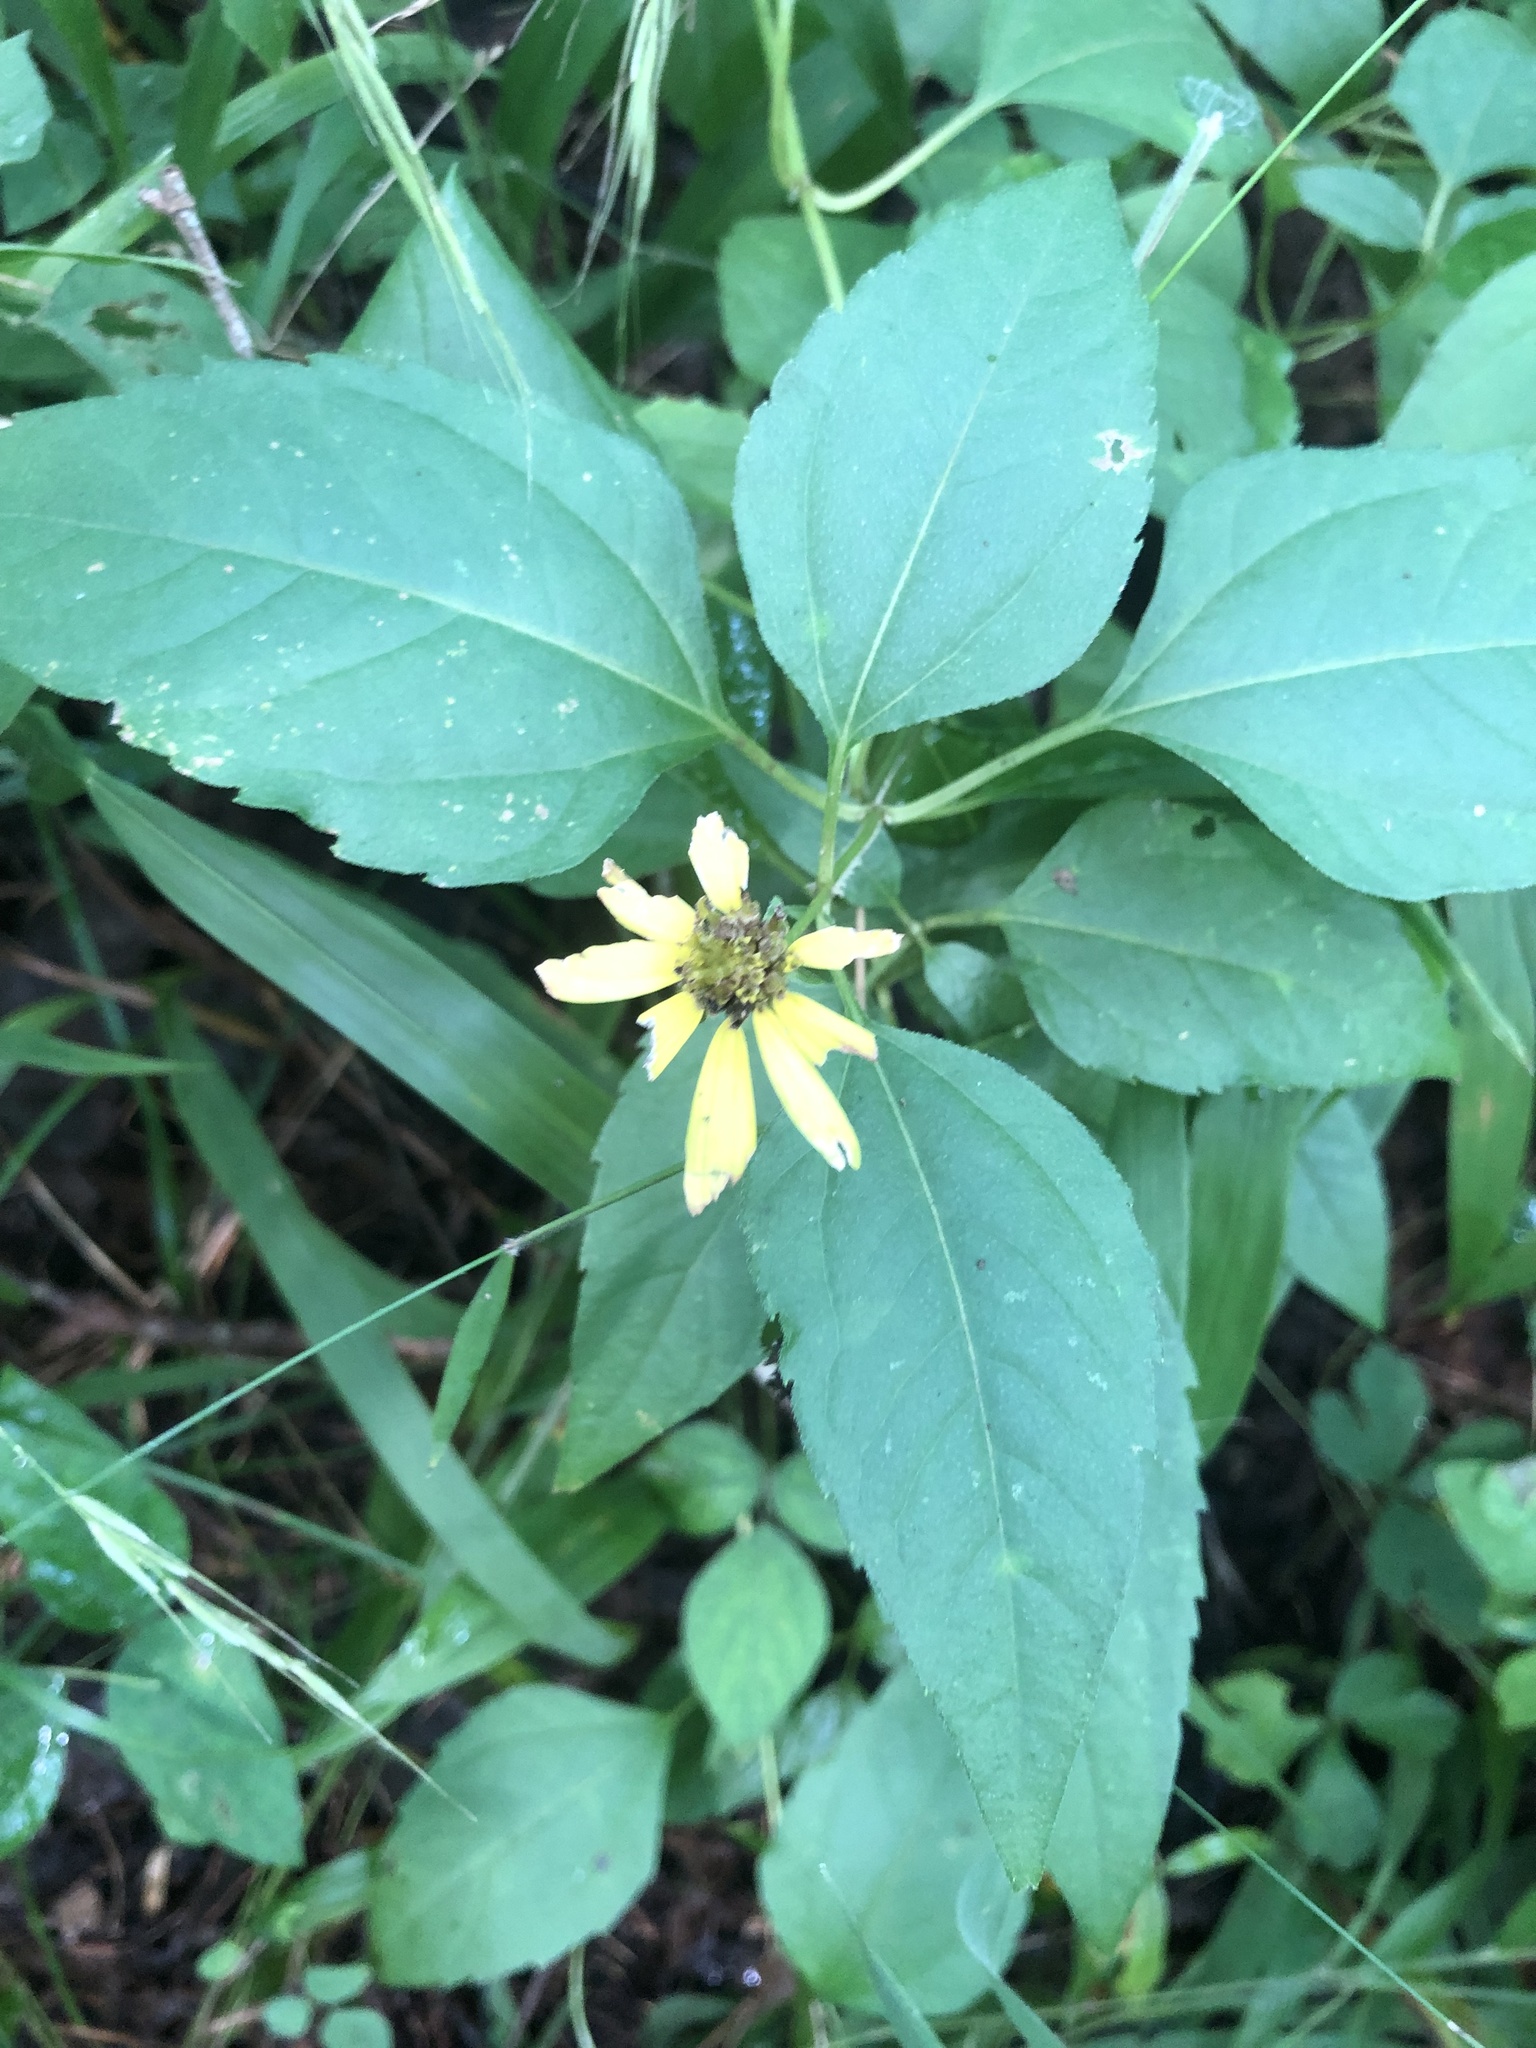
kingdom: Plantae
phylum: Tracheophyta
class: Magnoliopsida
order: Asterales
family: Asteraceae
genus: Heliopsis
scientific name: Heliopsis gracilis
